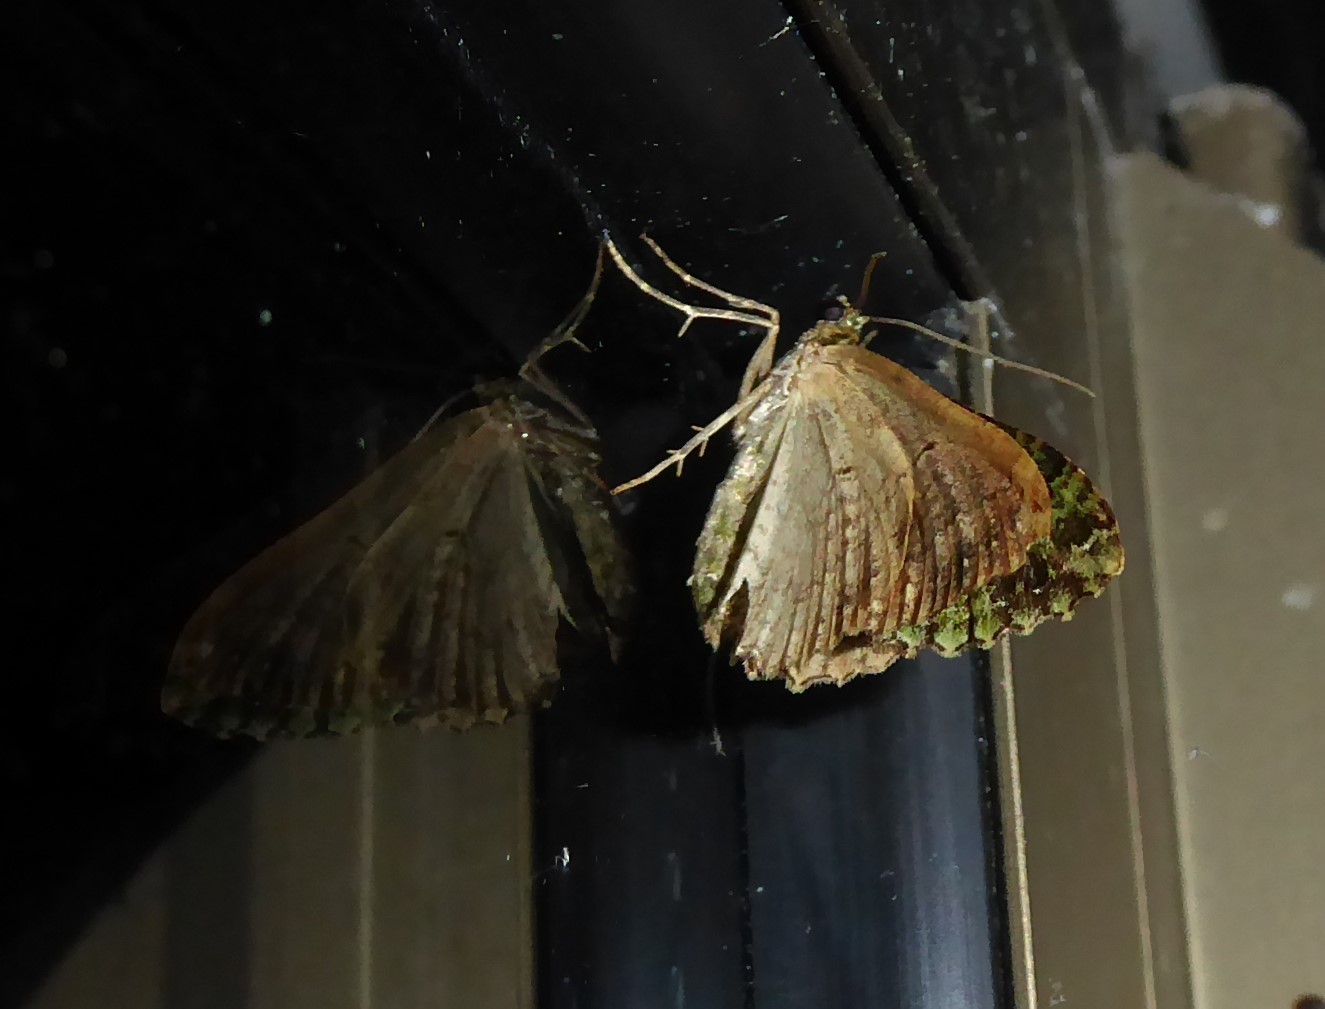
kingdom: Animalia
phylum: Arthropoda
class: Insecta
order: Lepidoptera
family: Geometridae
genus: Austrocidaria
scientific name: Austrocidaria similata
